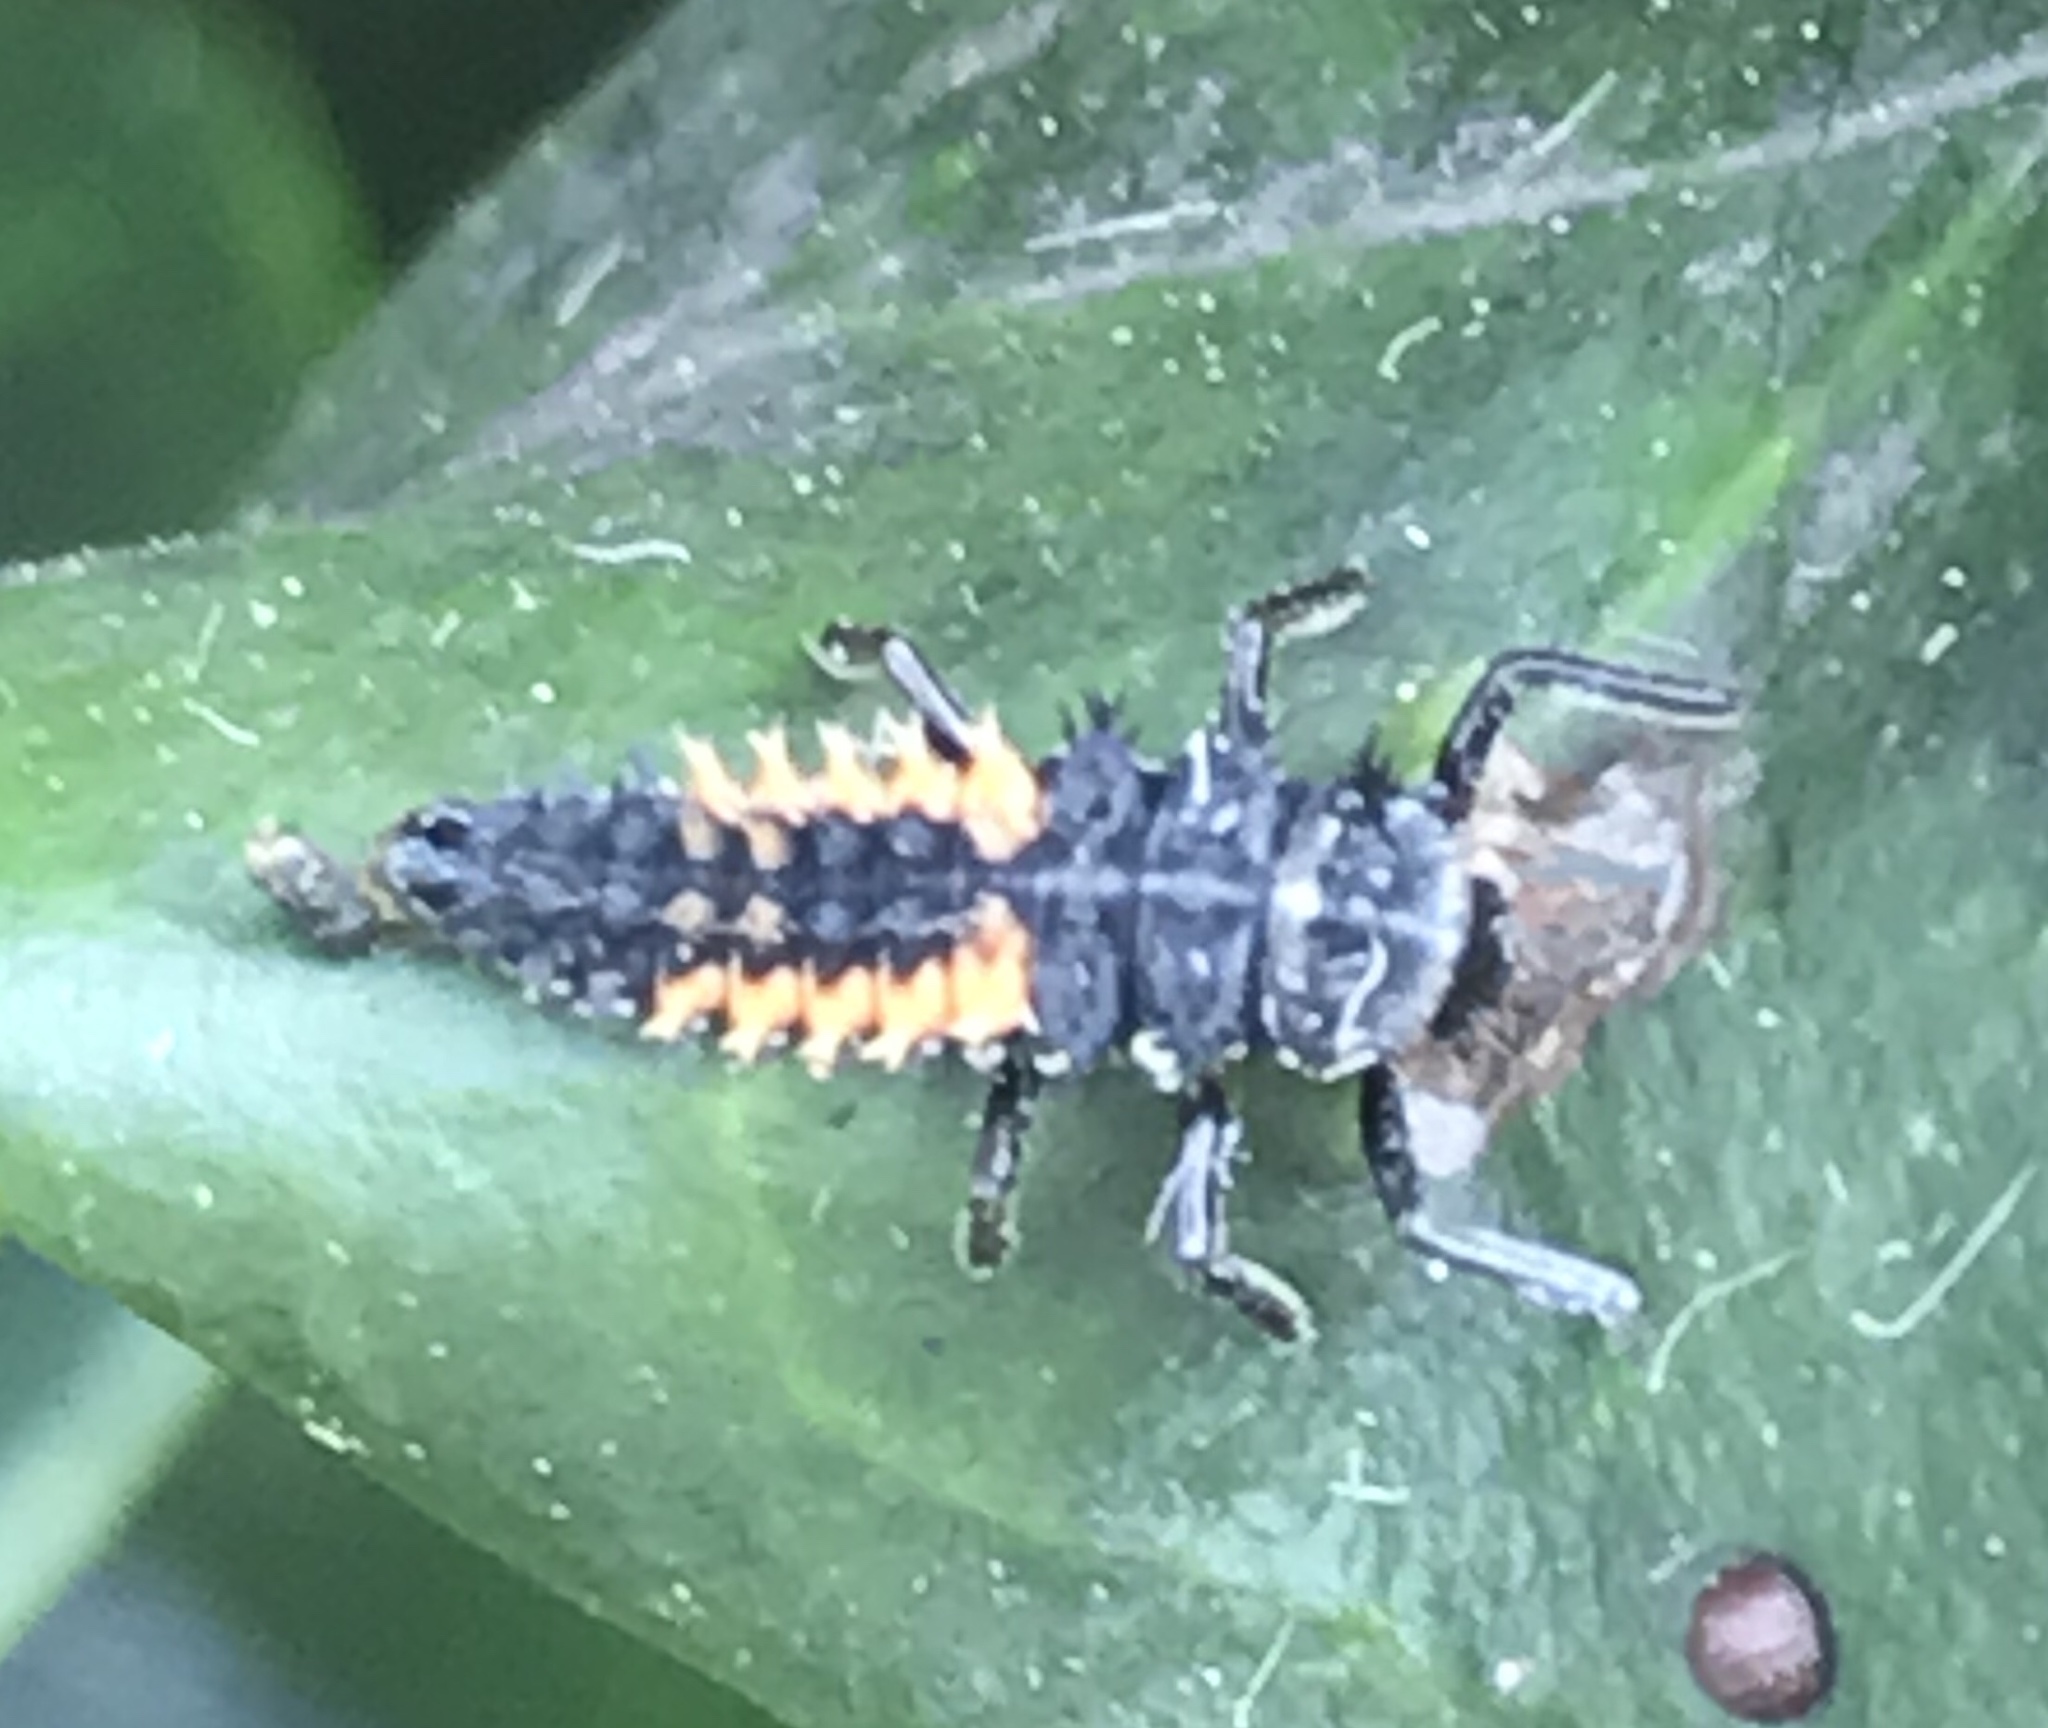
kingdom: Animalia
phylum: Arthropoda
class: Insecta
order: Coleoptera
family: Coccinellidae
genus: Harmonia
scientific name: Harmonia axyridis
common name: Harlequin ladybird
